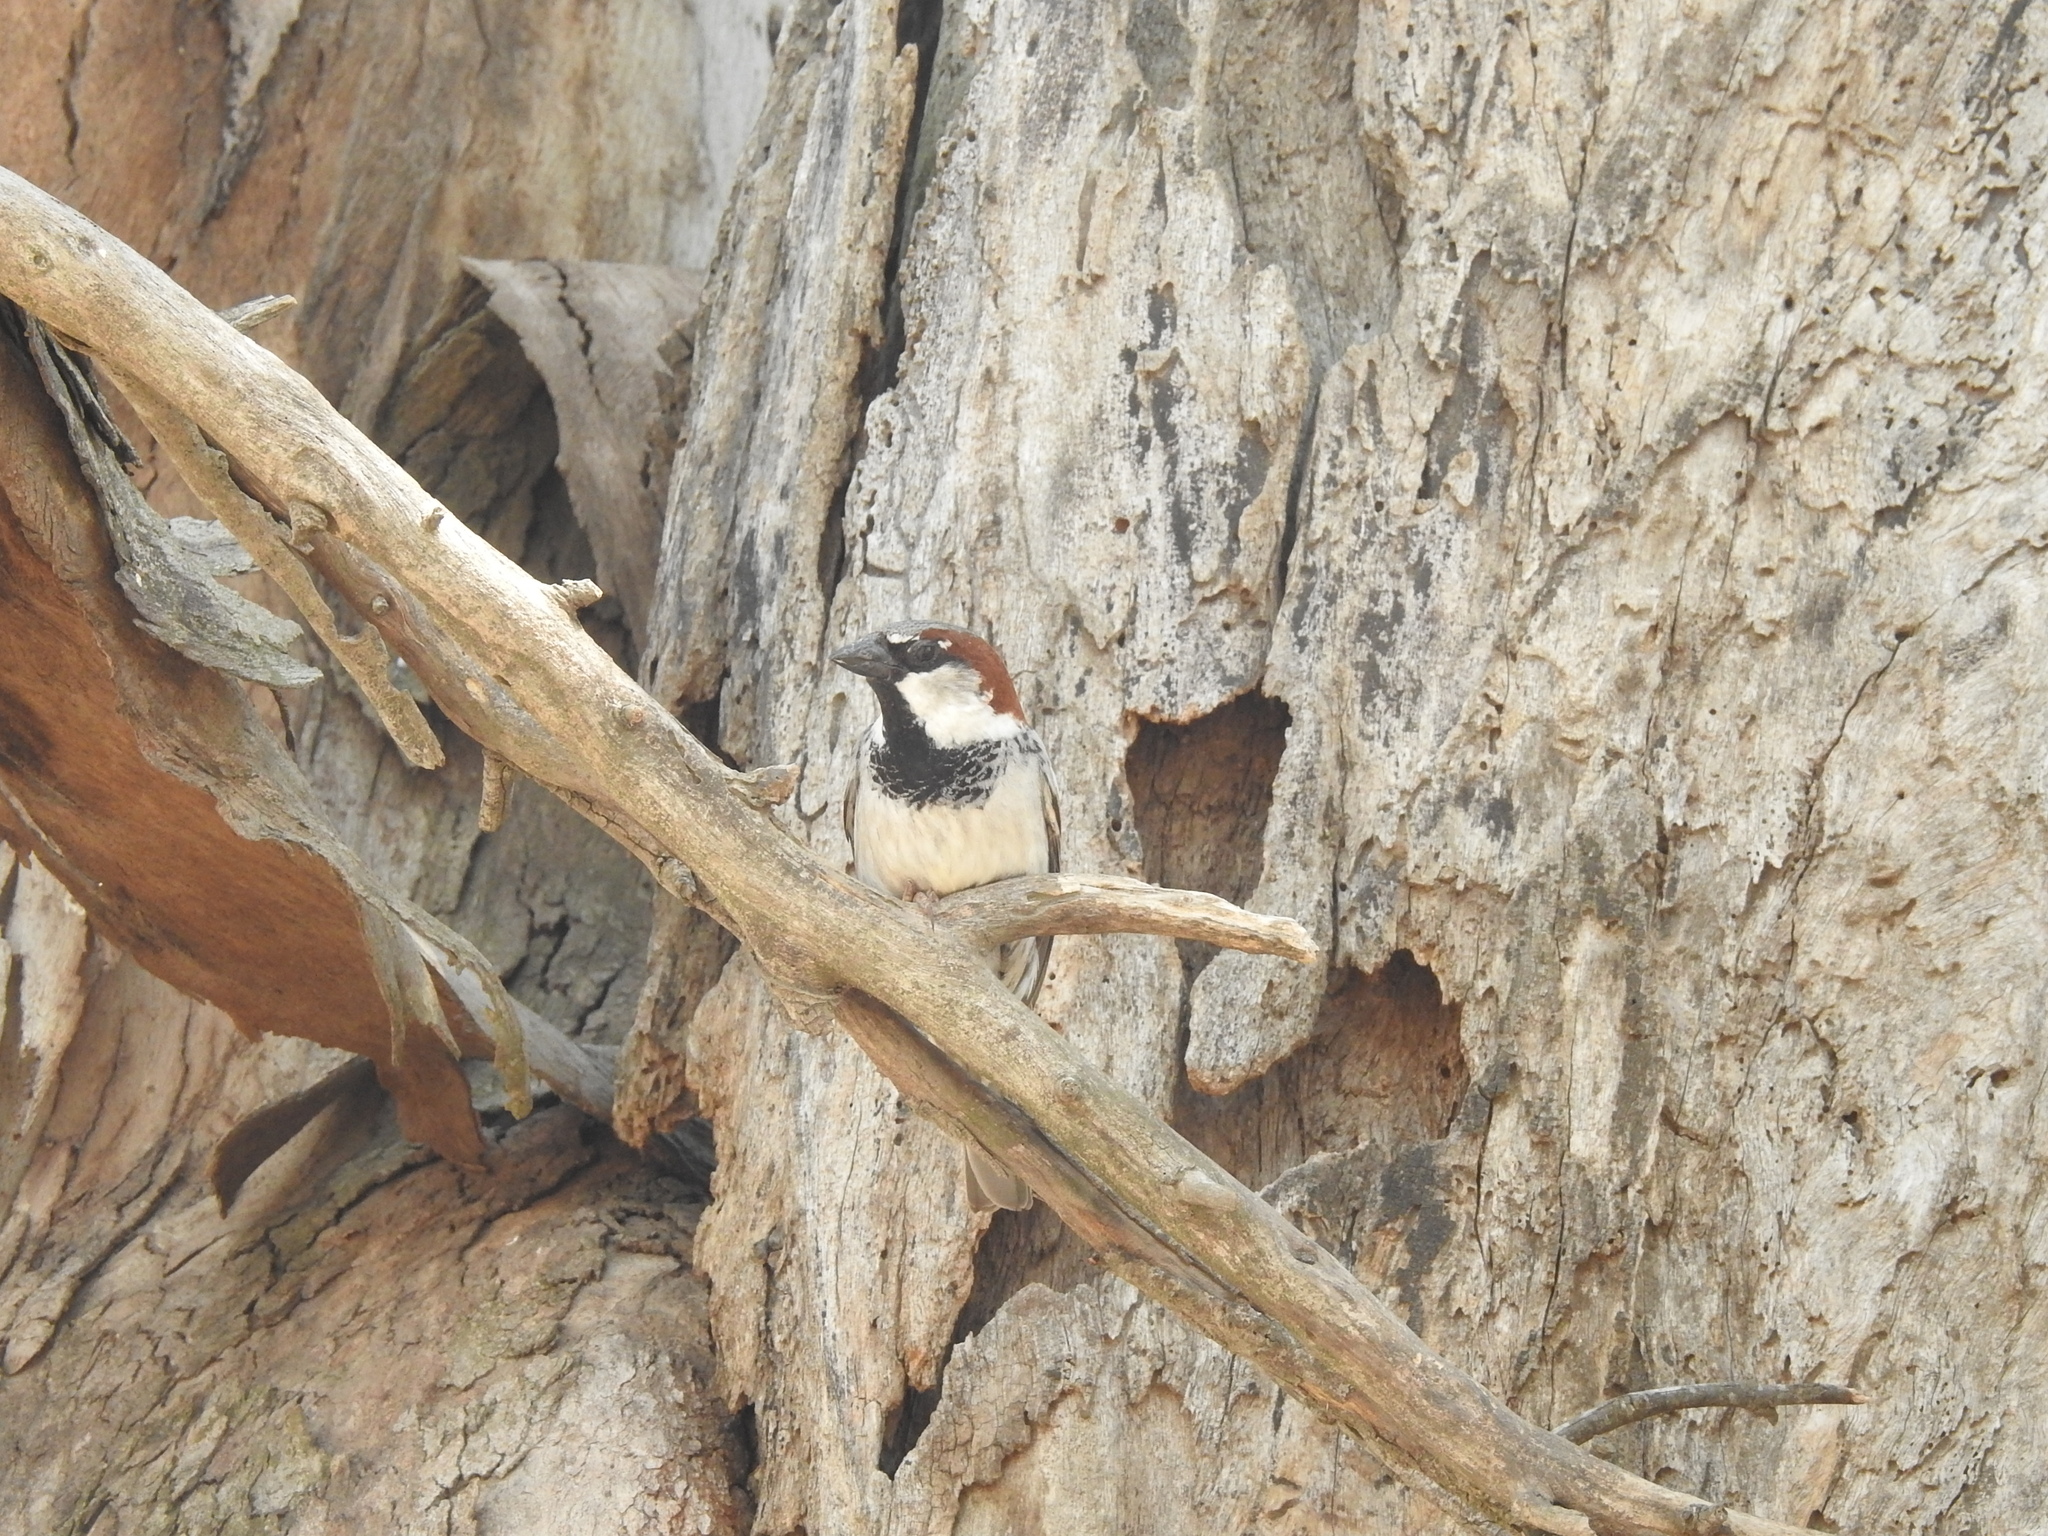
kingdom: Animalia
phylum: Chordata
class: Aves
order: Passeriformes
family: Passeridae
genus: Passer
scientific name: Passer domesticus
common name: House sparrow
